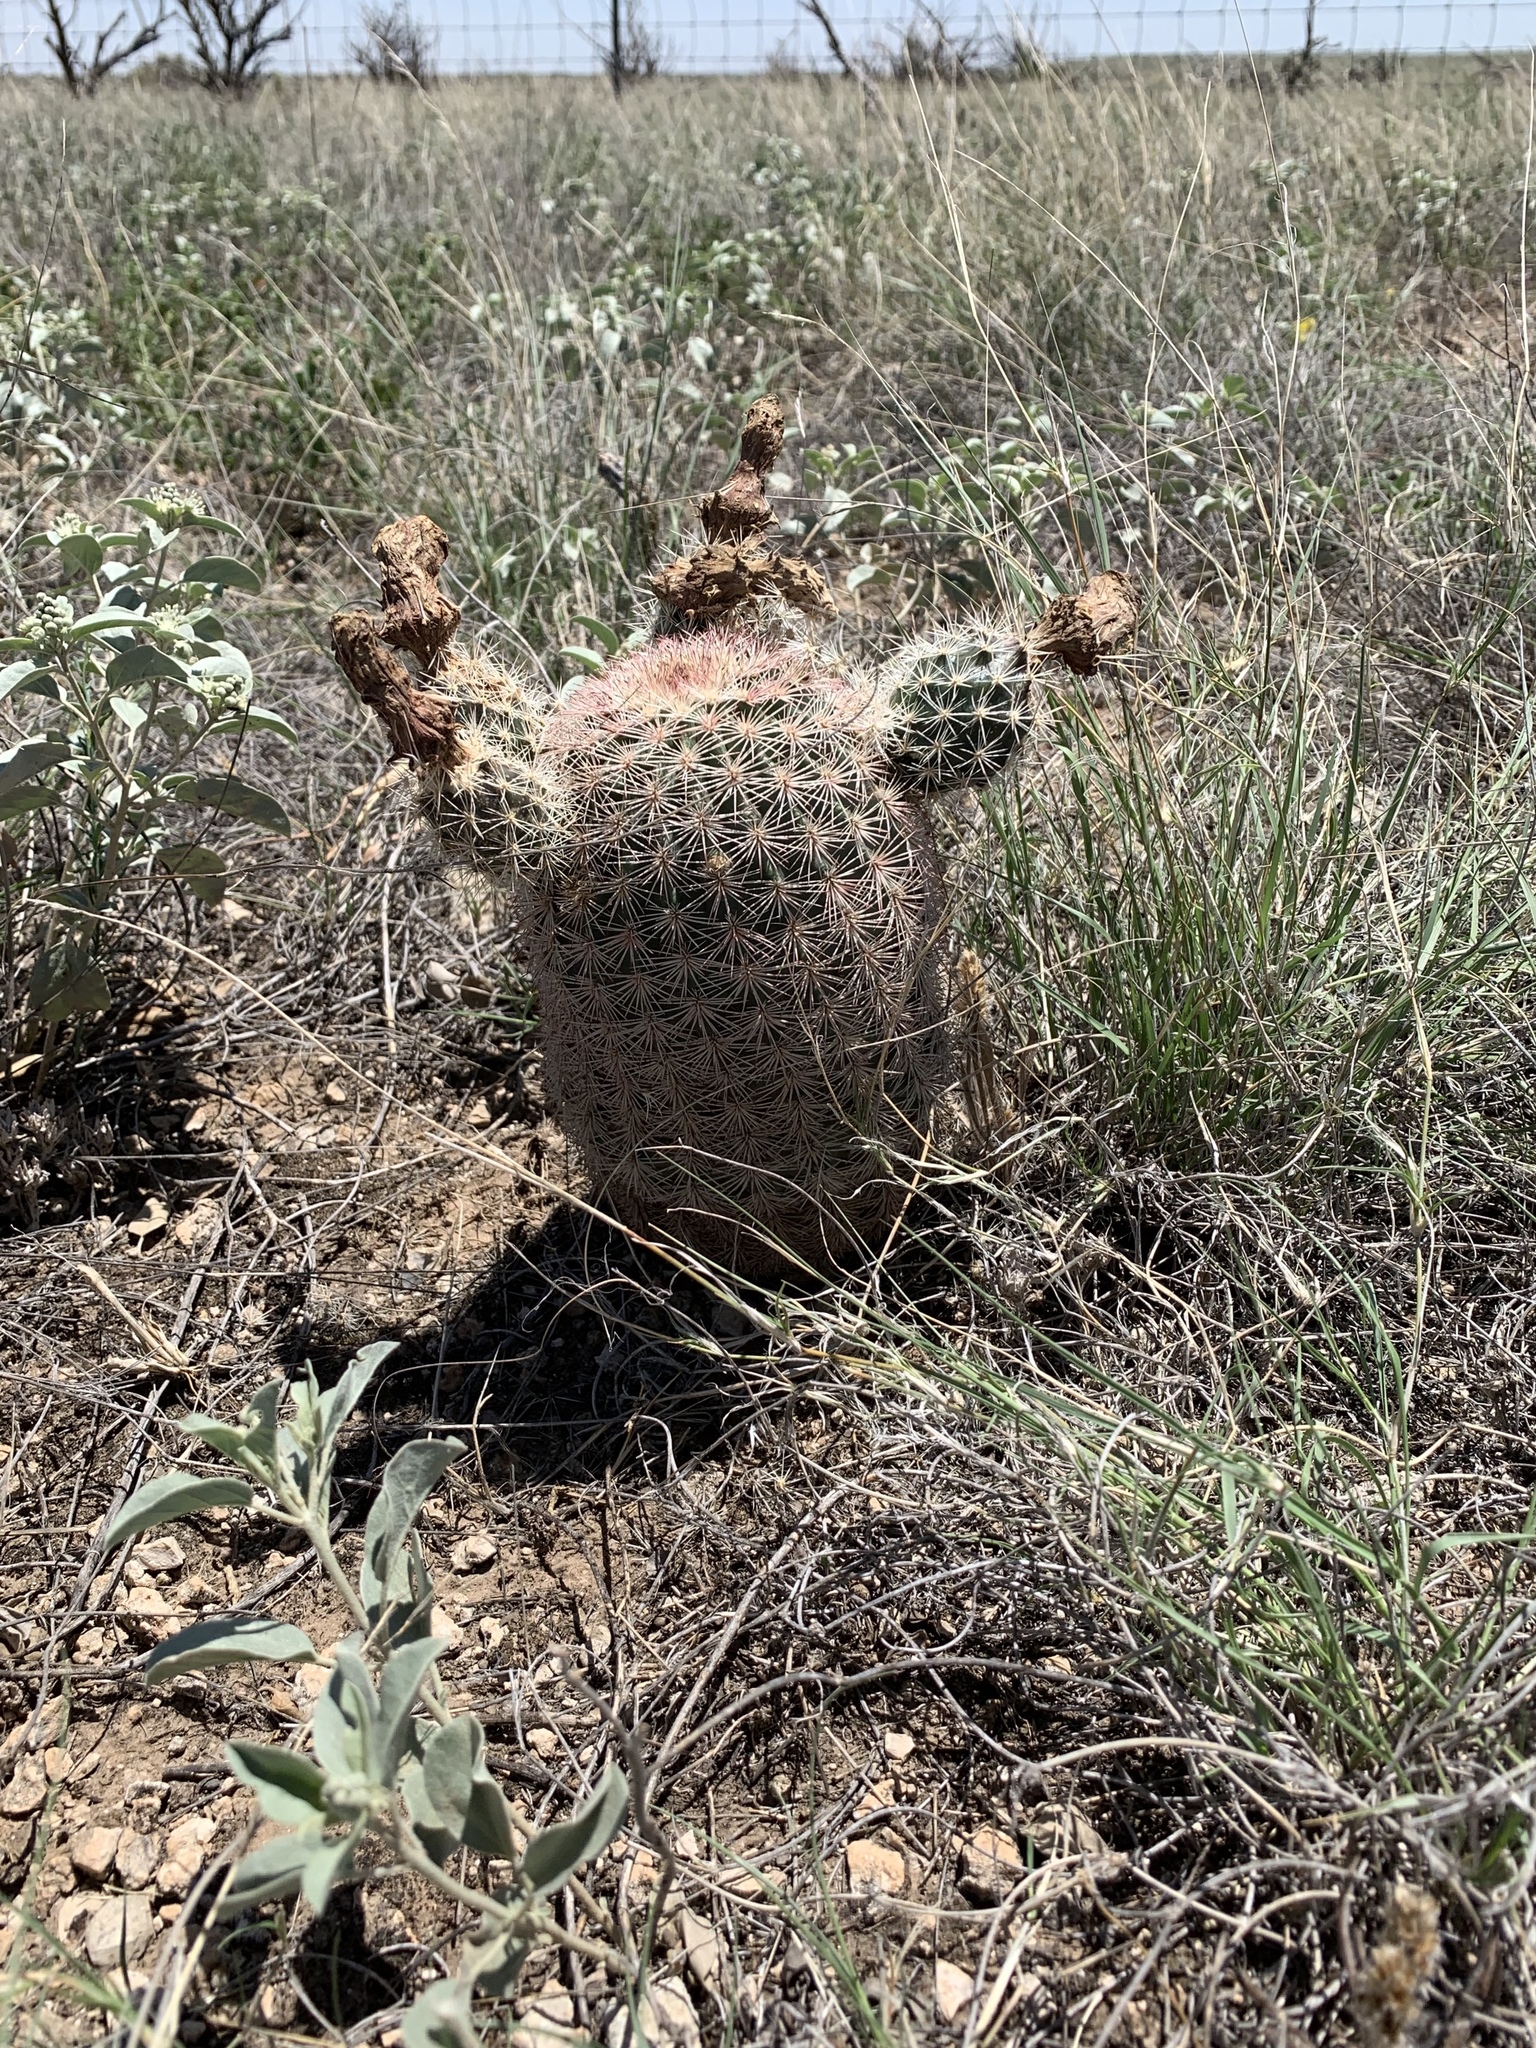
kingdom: Plantae
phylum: Tracheophyta
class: Magnoliopsida
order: Caryophyllales
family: Cactaceae
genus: Echinocereus
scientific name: Echinocereus dasyacanthus
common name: Spiny hedgehog cactus
